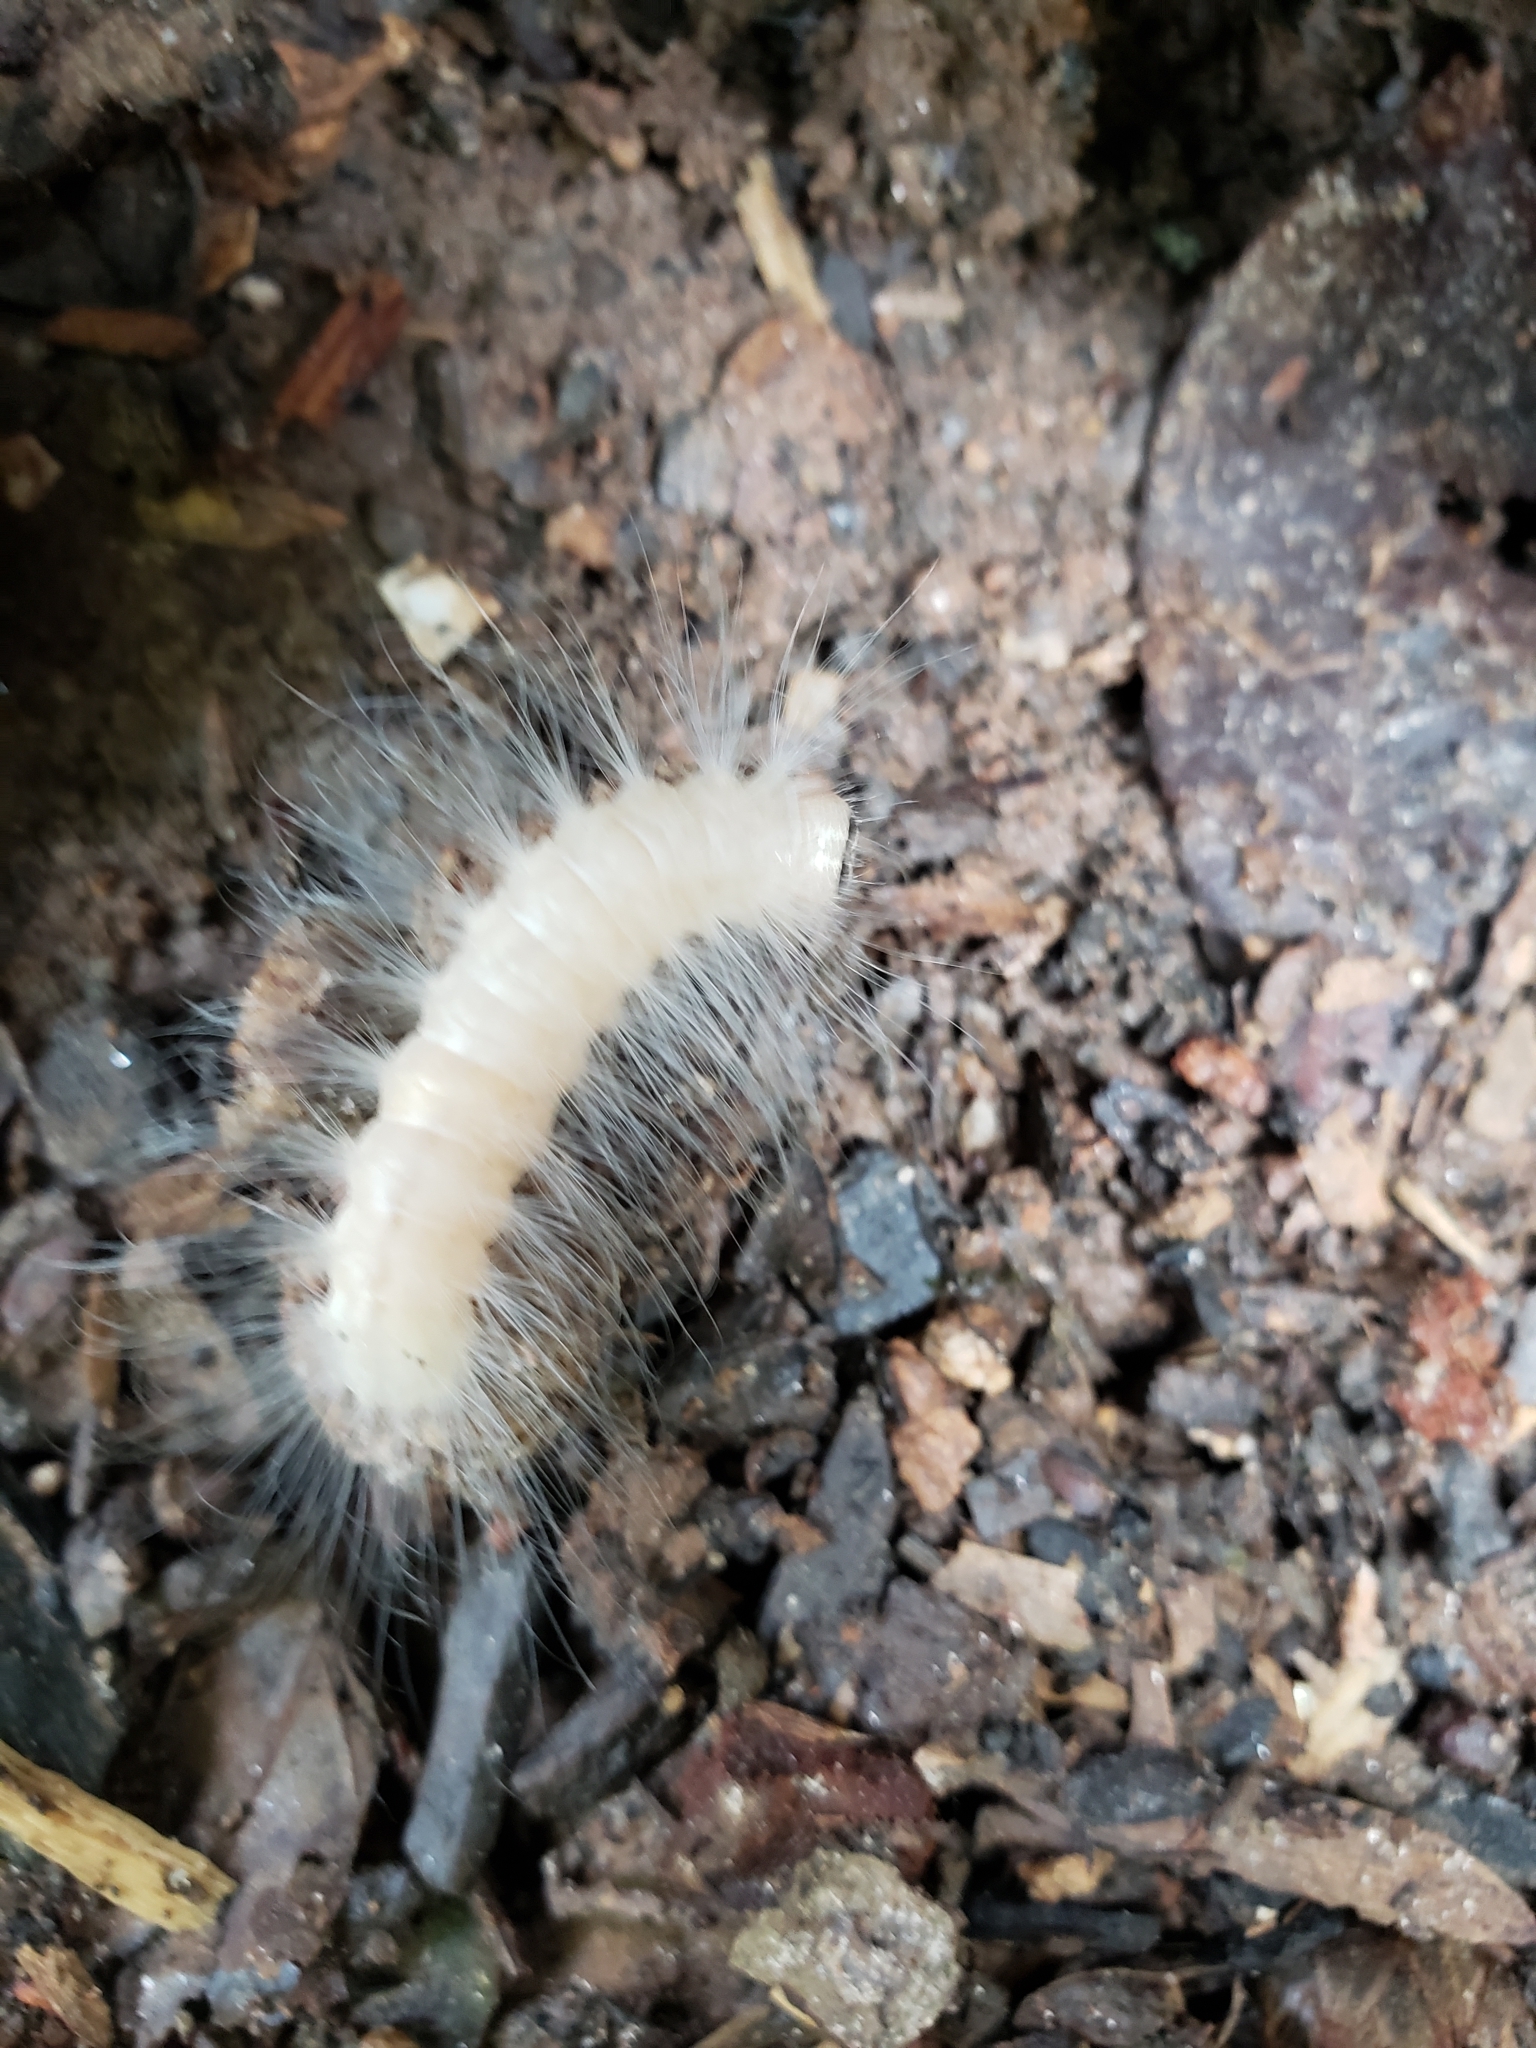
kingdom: Animalia
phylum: Arthropoda
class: Insecta
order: Lepidoptera
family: Noctuidae
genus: Charadra
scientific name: Charadra deridens
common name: Marbled tuffet
